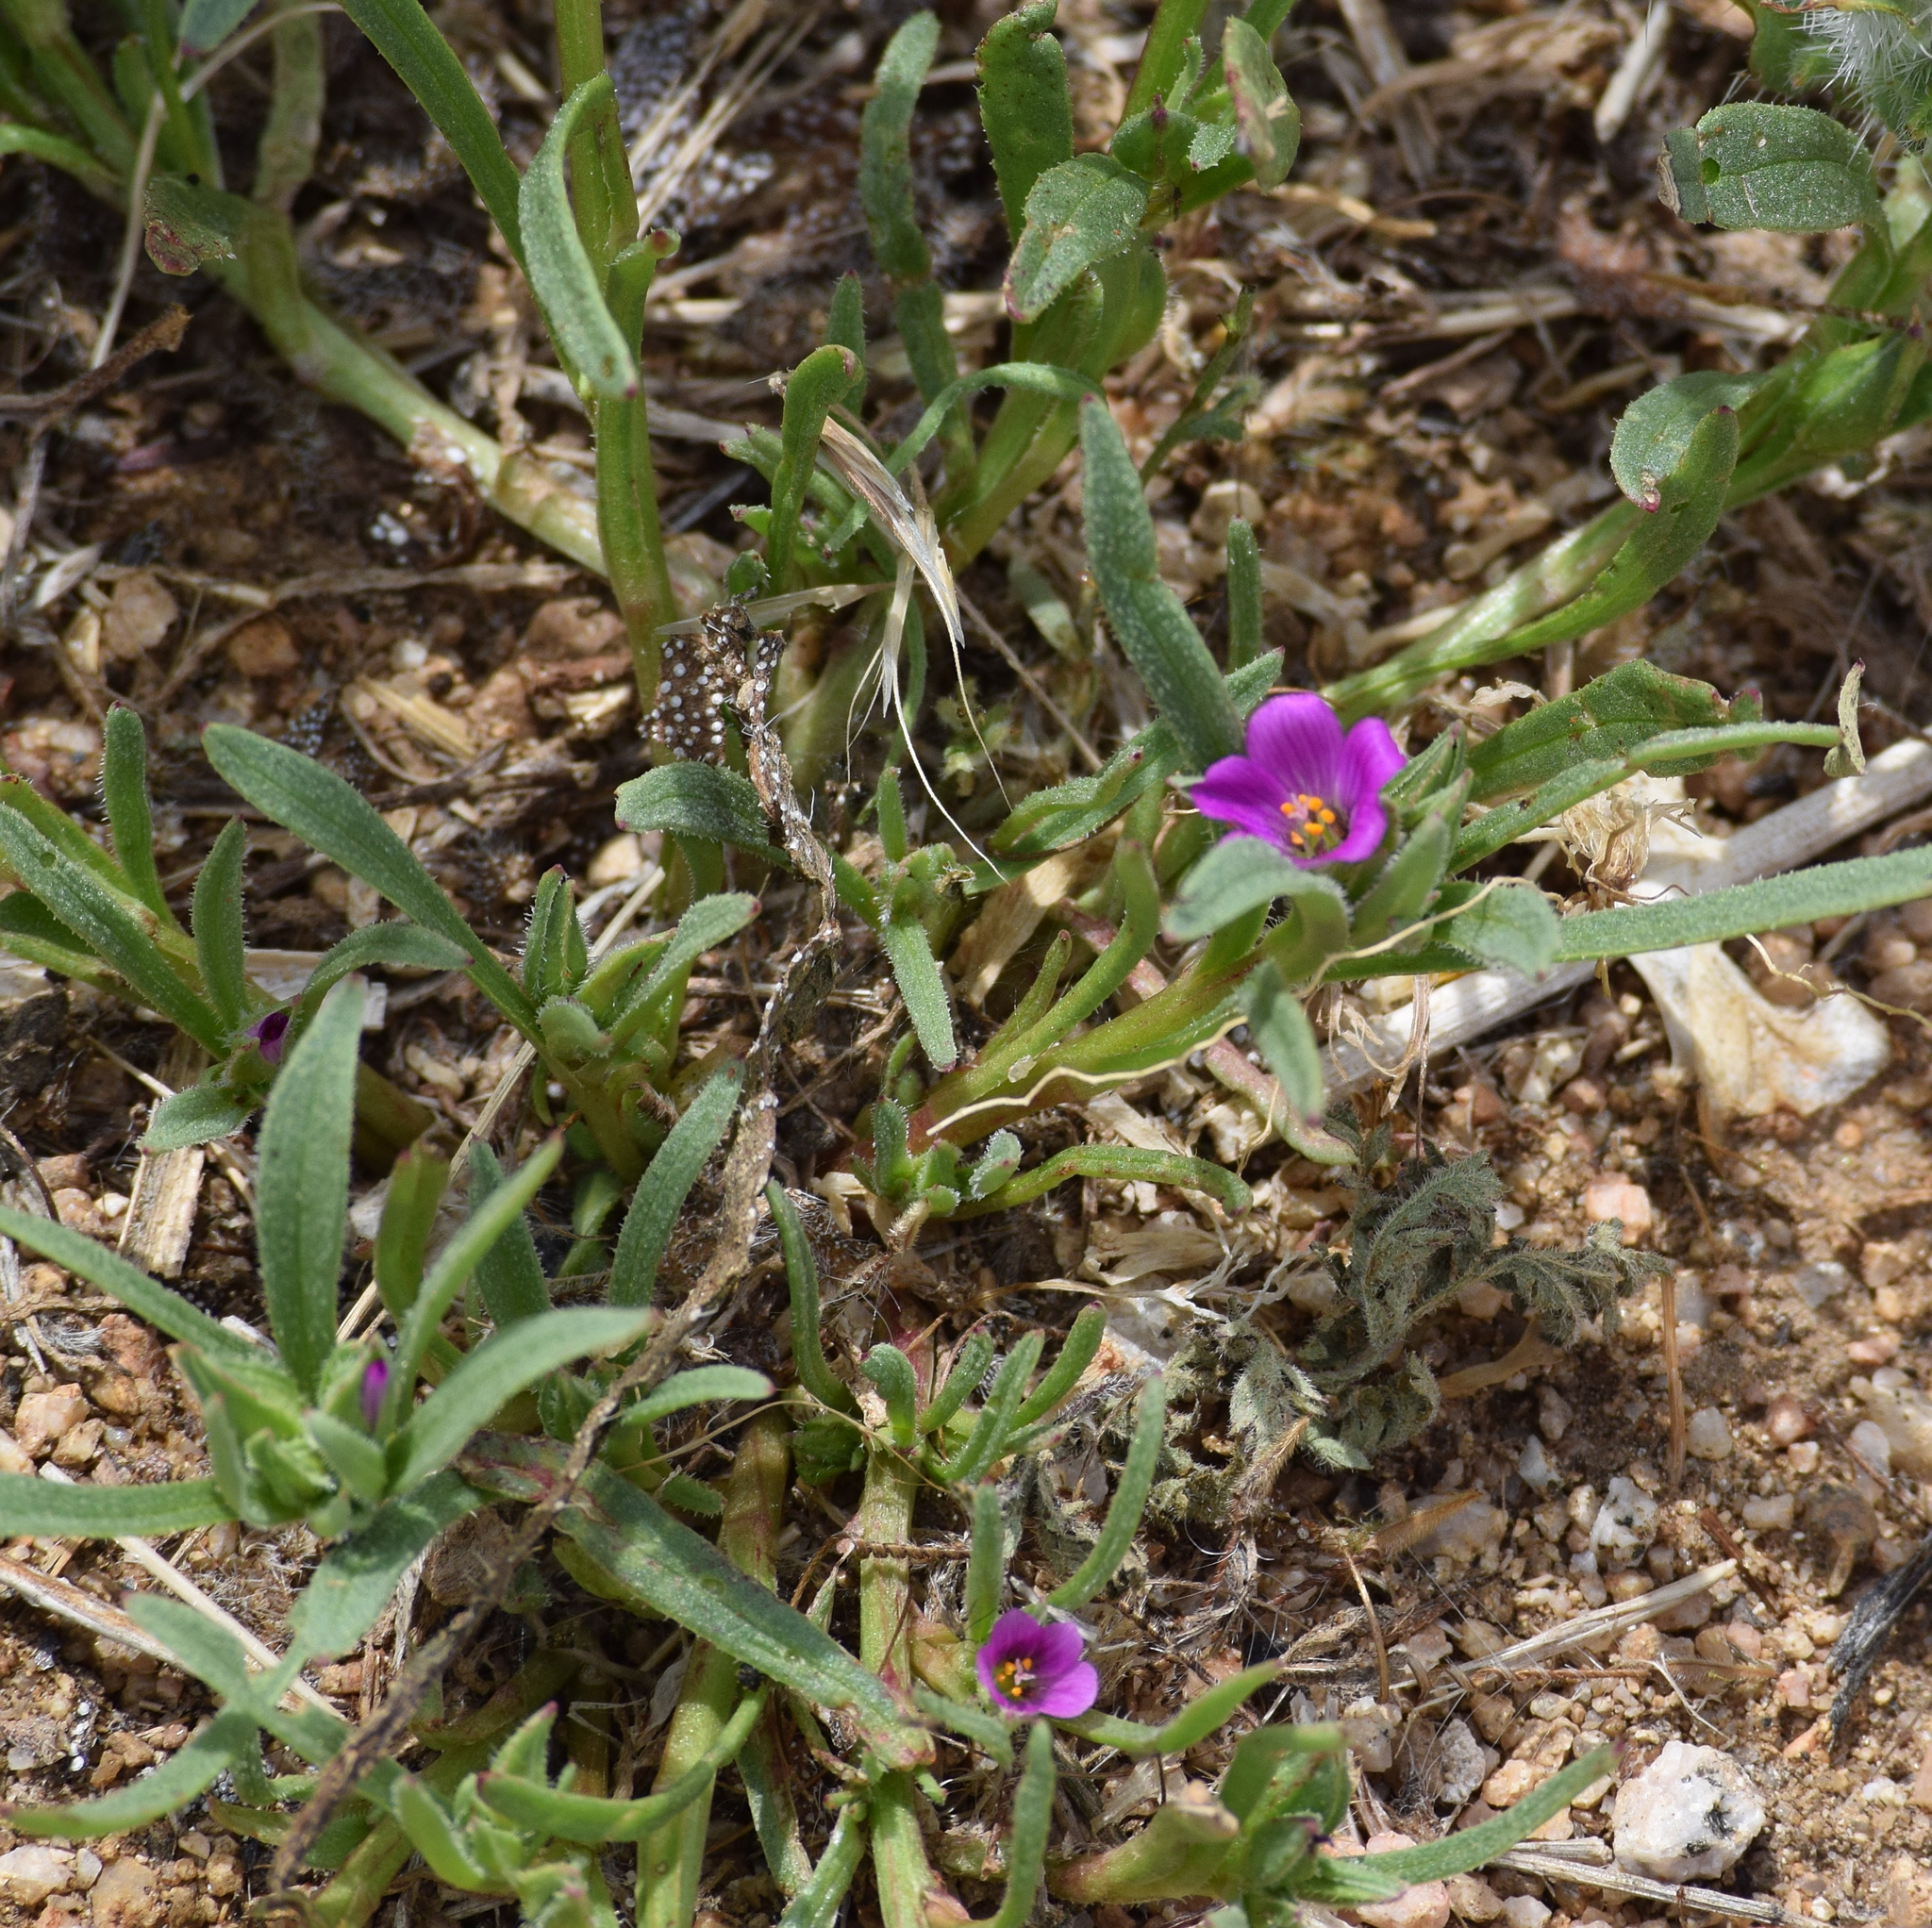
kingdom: Plantae
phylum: Tracheophyta
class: Magnoliopsida
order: Caryophyllales
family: Montiaceae
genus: Calandrinia
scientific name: Calandrinia menziesii
